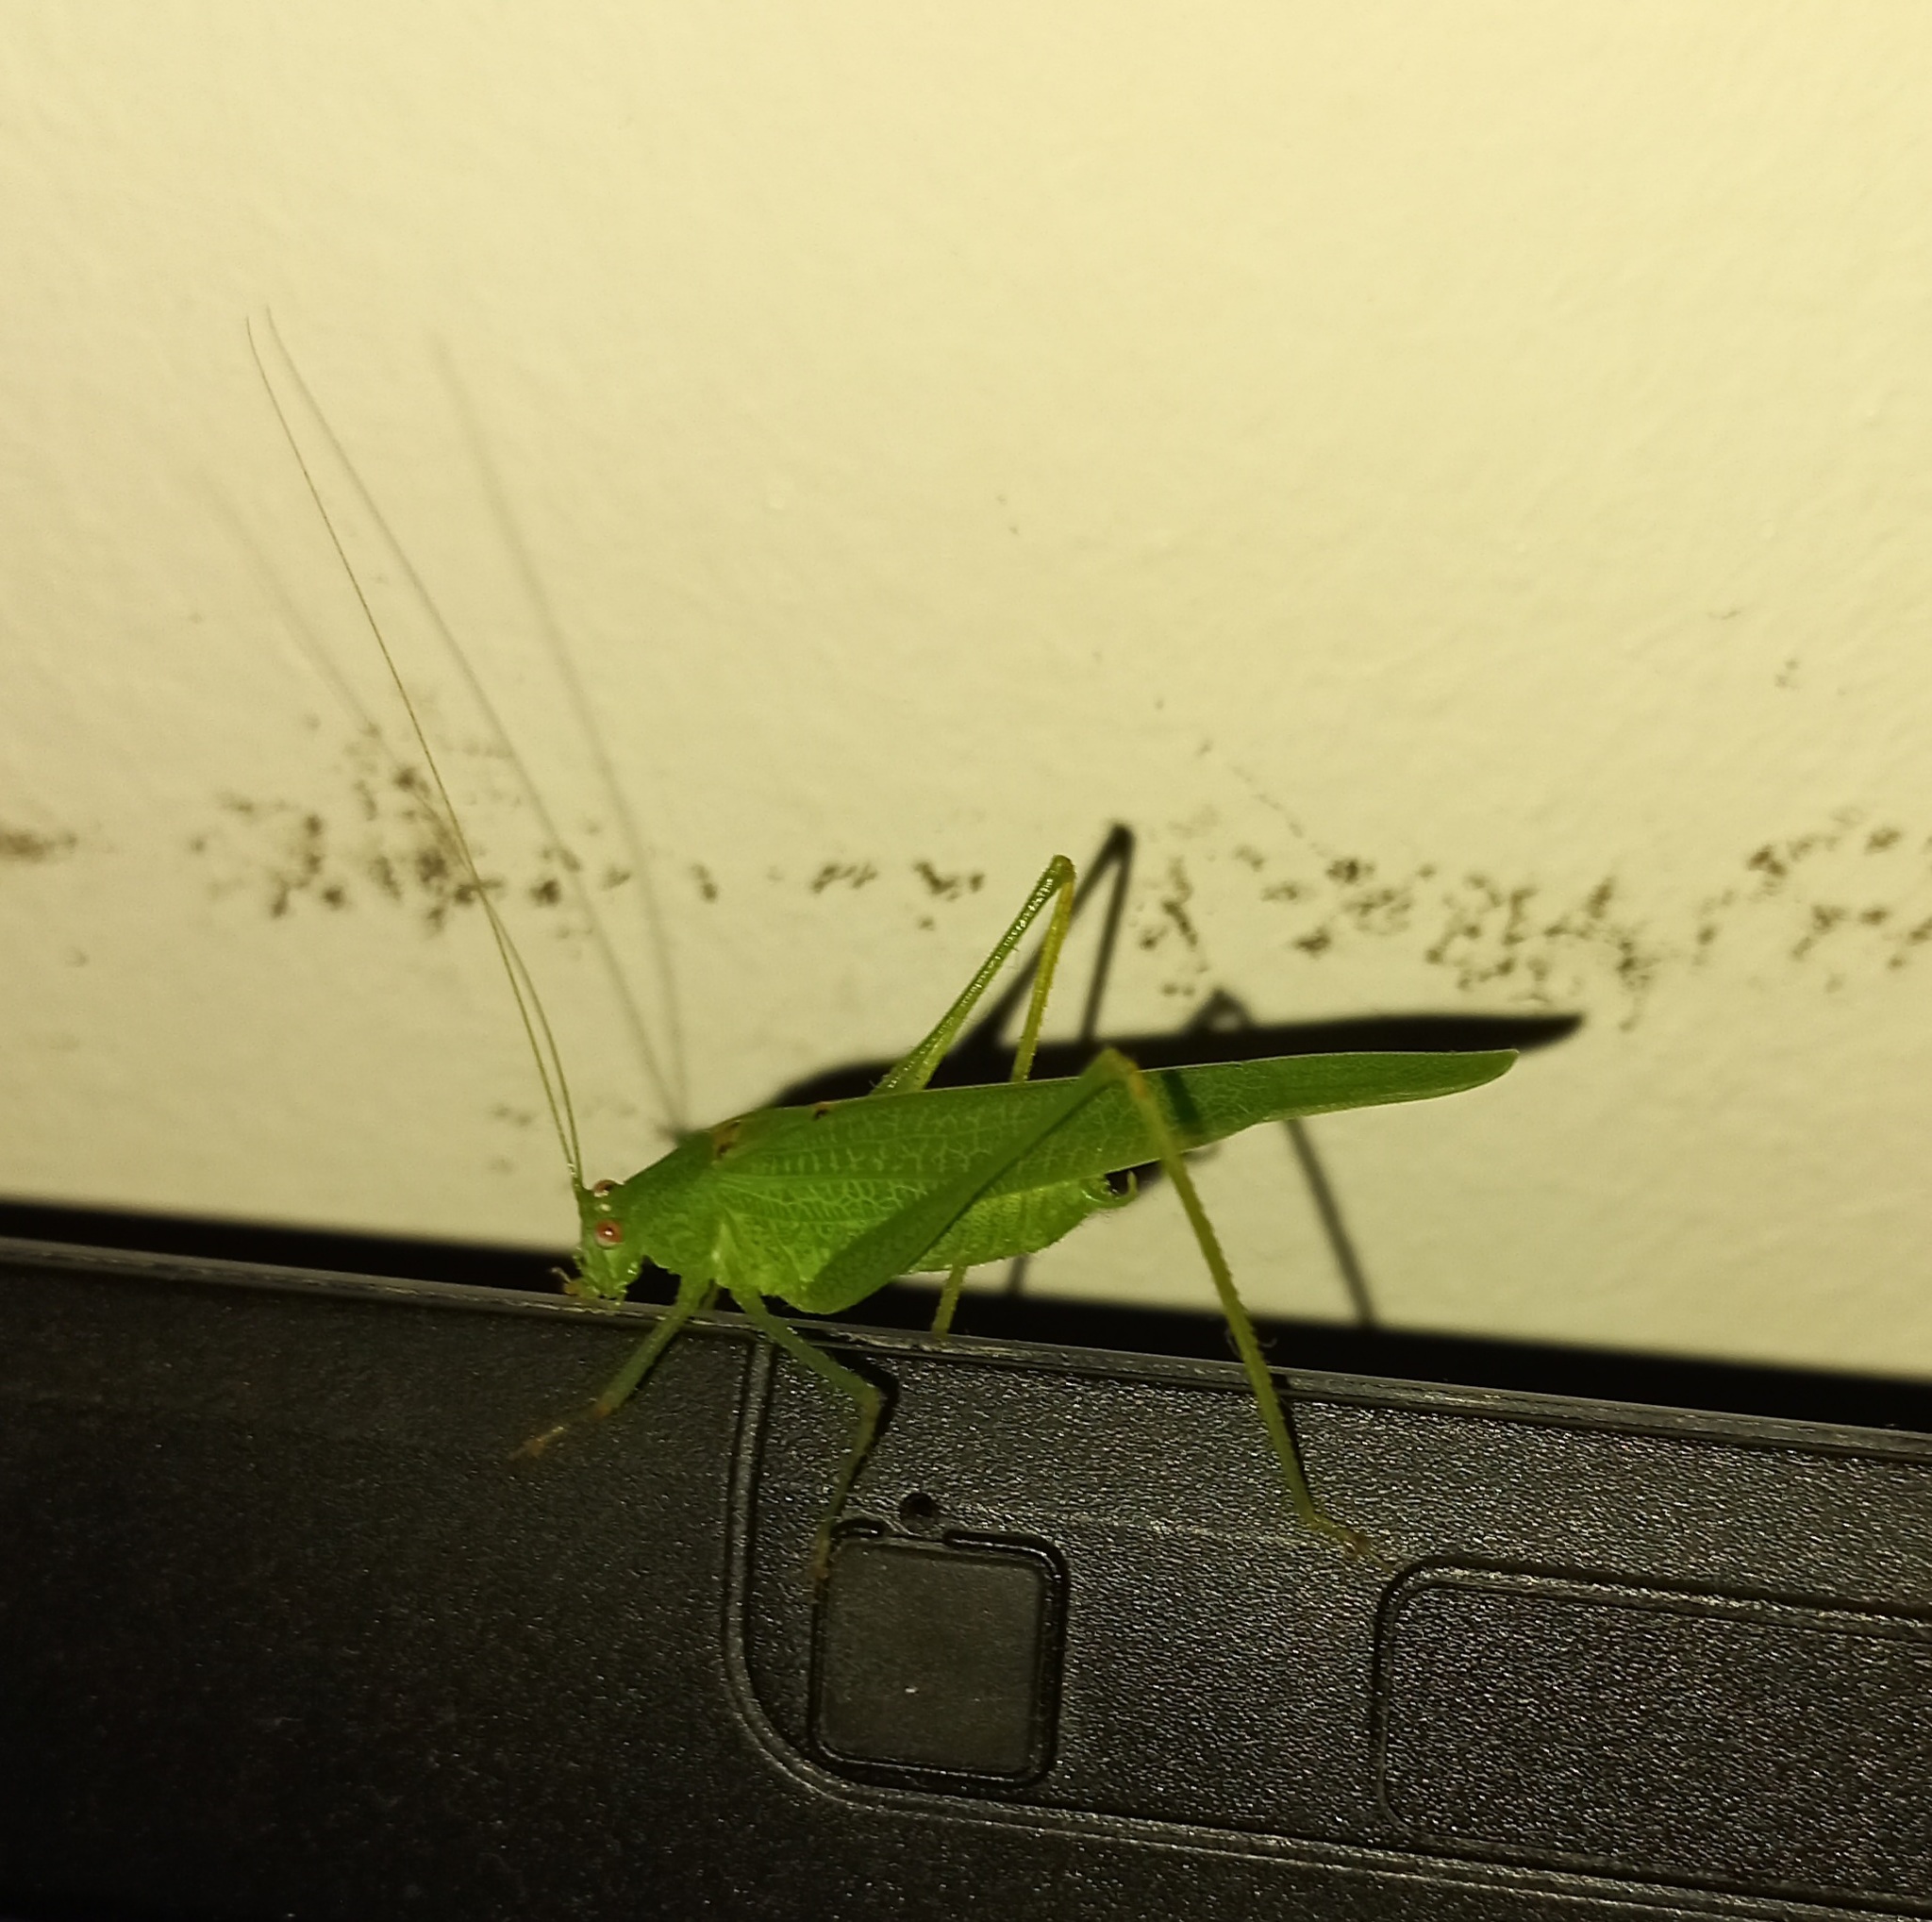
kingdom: Animalia
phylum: Arthropoda
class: Insecta
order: Orthoptera
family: Tettigoniidae
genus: Phaneroptera
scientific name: Phaneroptera nana
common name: Southern sickle bush-cricket
